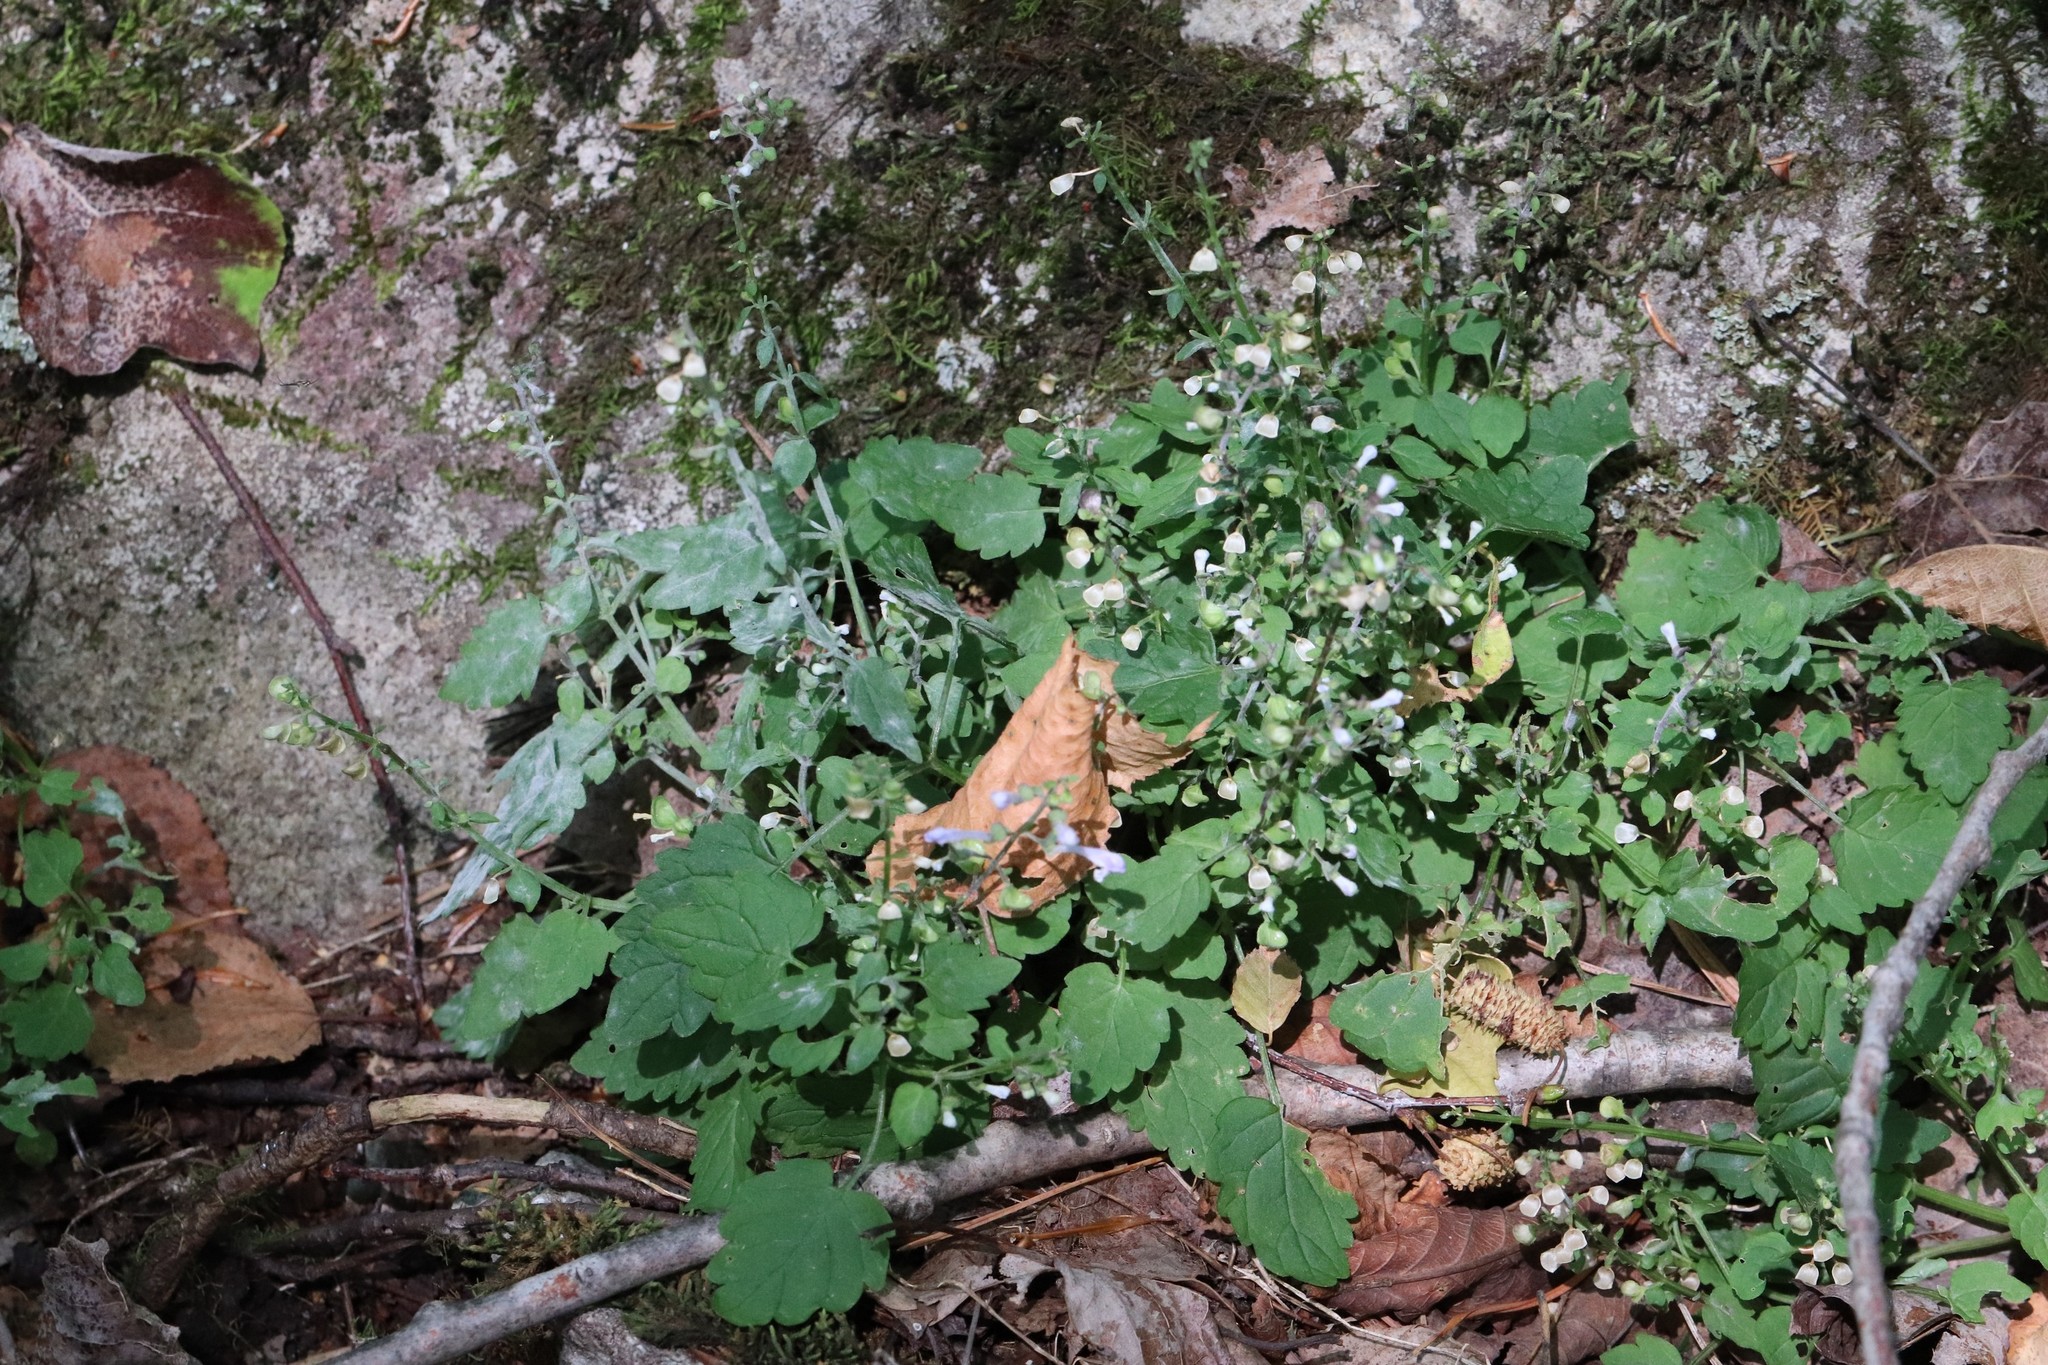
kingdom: Plantae
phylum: Tracheophyta
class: Magnoliopsida
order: Lamiales
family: Lamiaceae
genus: Scutellaria
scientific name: Scutellaria pekinensis
